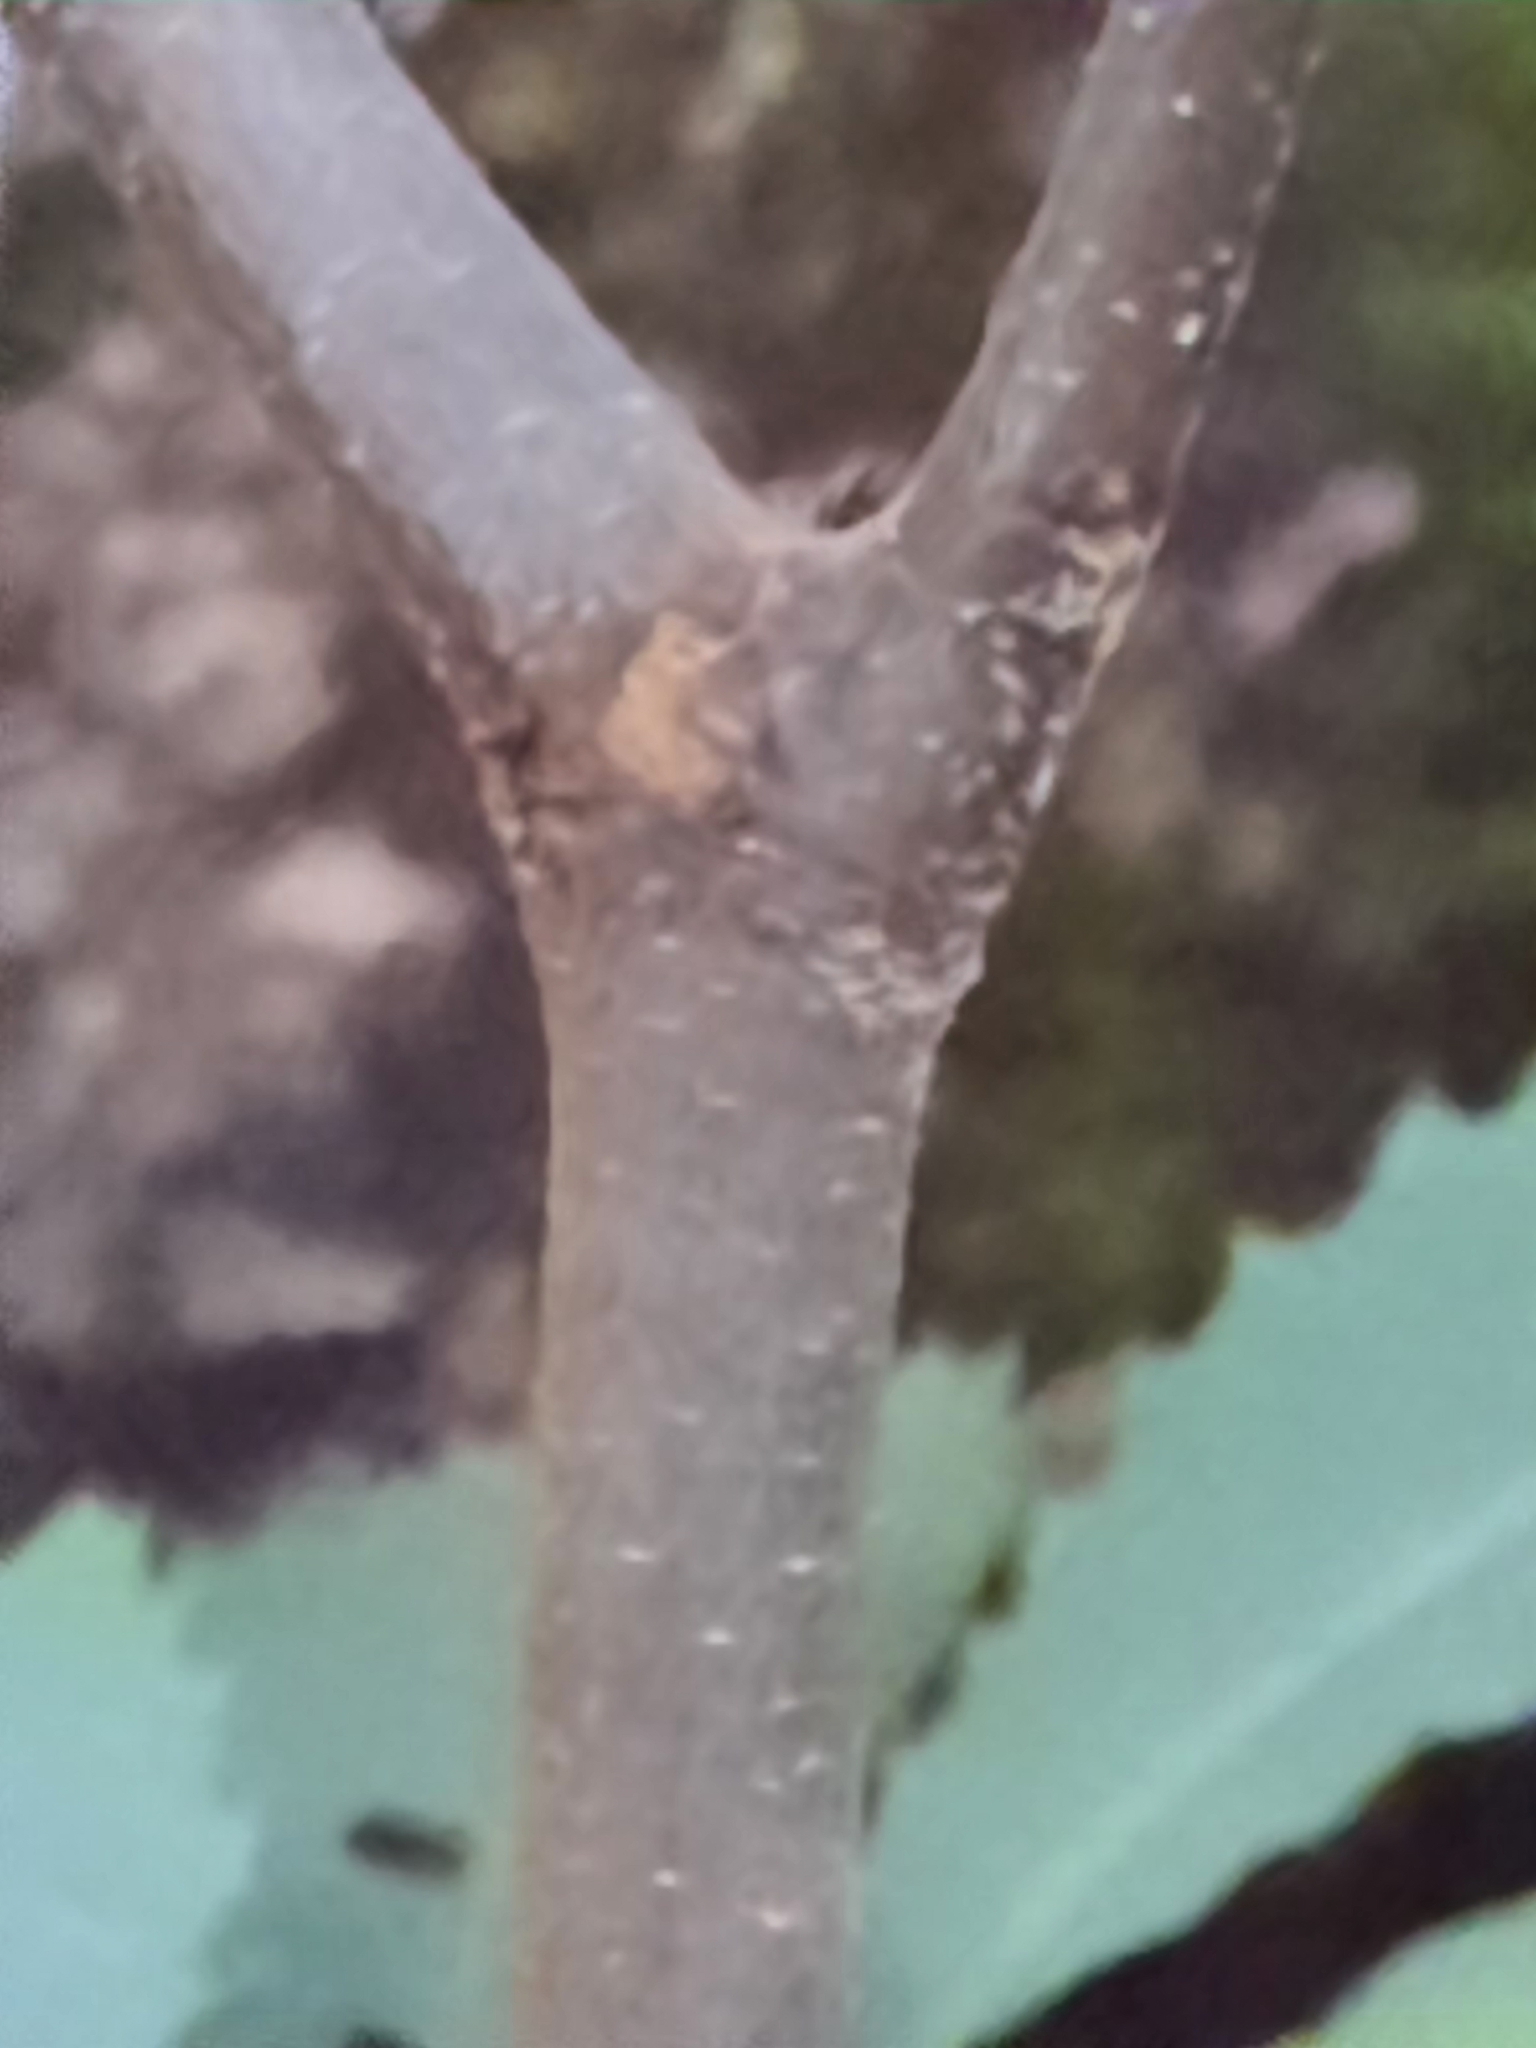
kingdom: Plantae
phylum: Tracheophyta
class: Magnoliopsida
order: Fagales
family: Fagaceae
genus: Castanea
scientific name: Castanea dentata
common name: American chestnut
